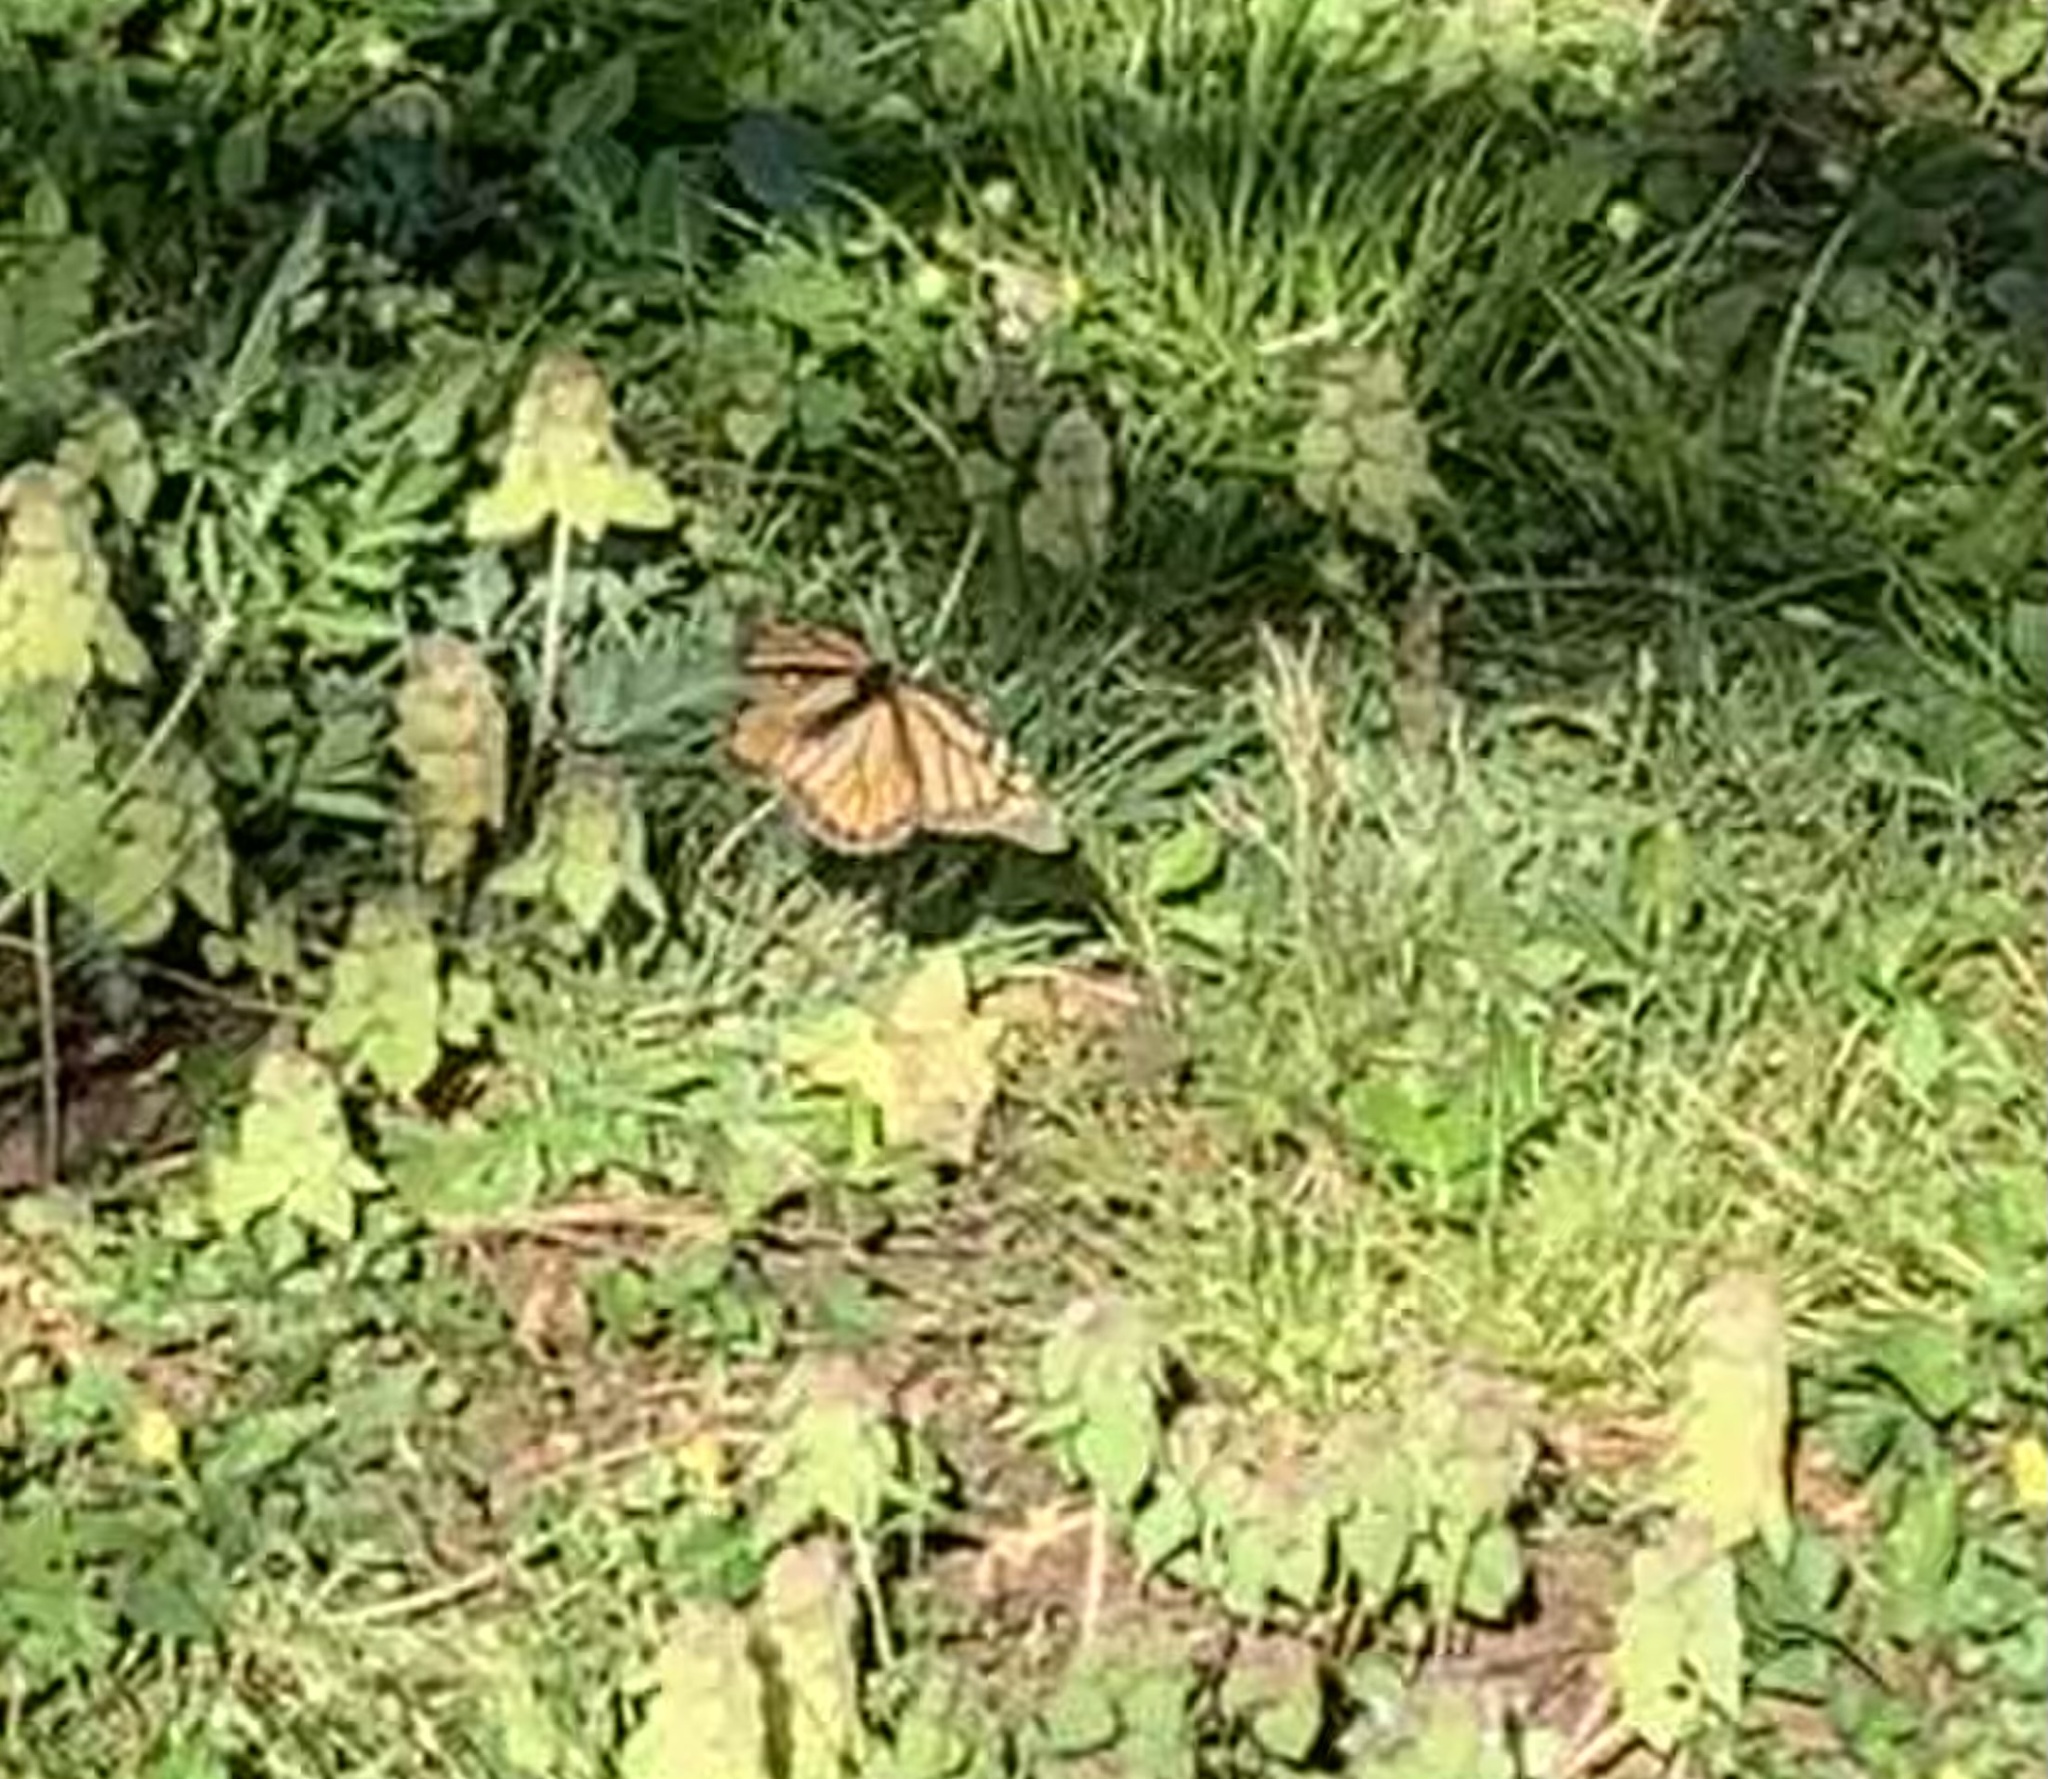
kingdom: Animalia
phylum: Arthropoda
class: Insecta
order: Lepidoptera
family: Nymphalidae
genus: Danaus
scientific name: Danaus plexippus
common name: Monarch
